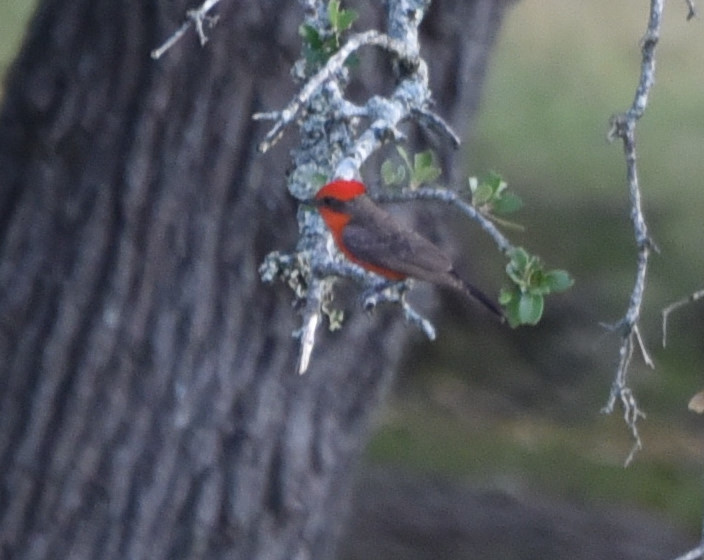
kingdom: Animalia
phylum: Chordata
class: Aves
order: Passeriformes
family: Tyrannidae
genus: Pyrocephalus
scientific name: Pyrocephalus rubinus
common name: Vermilion flycatcher
